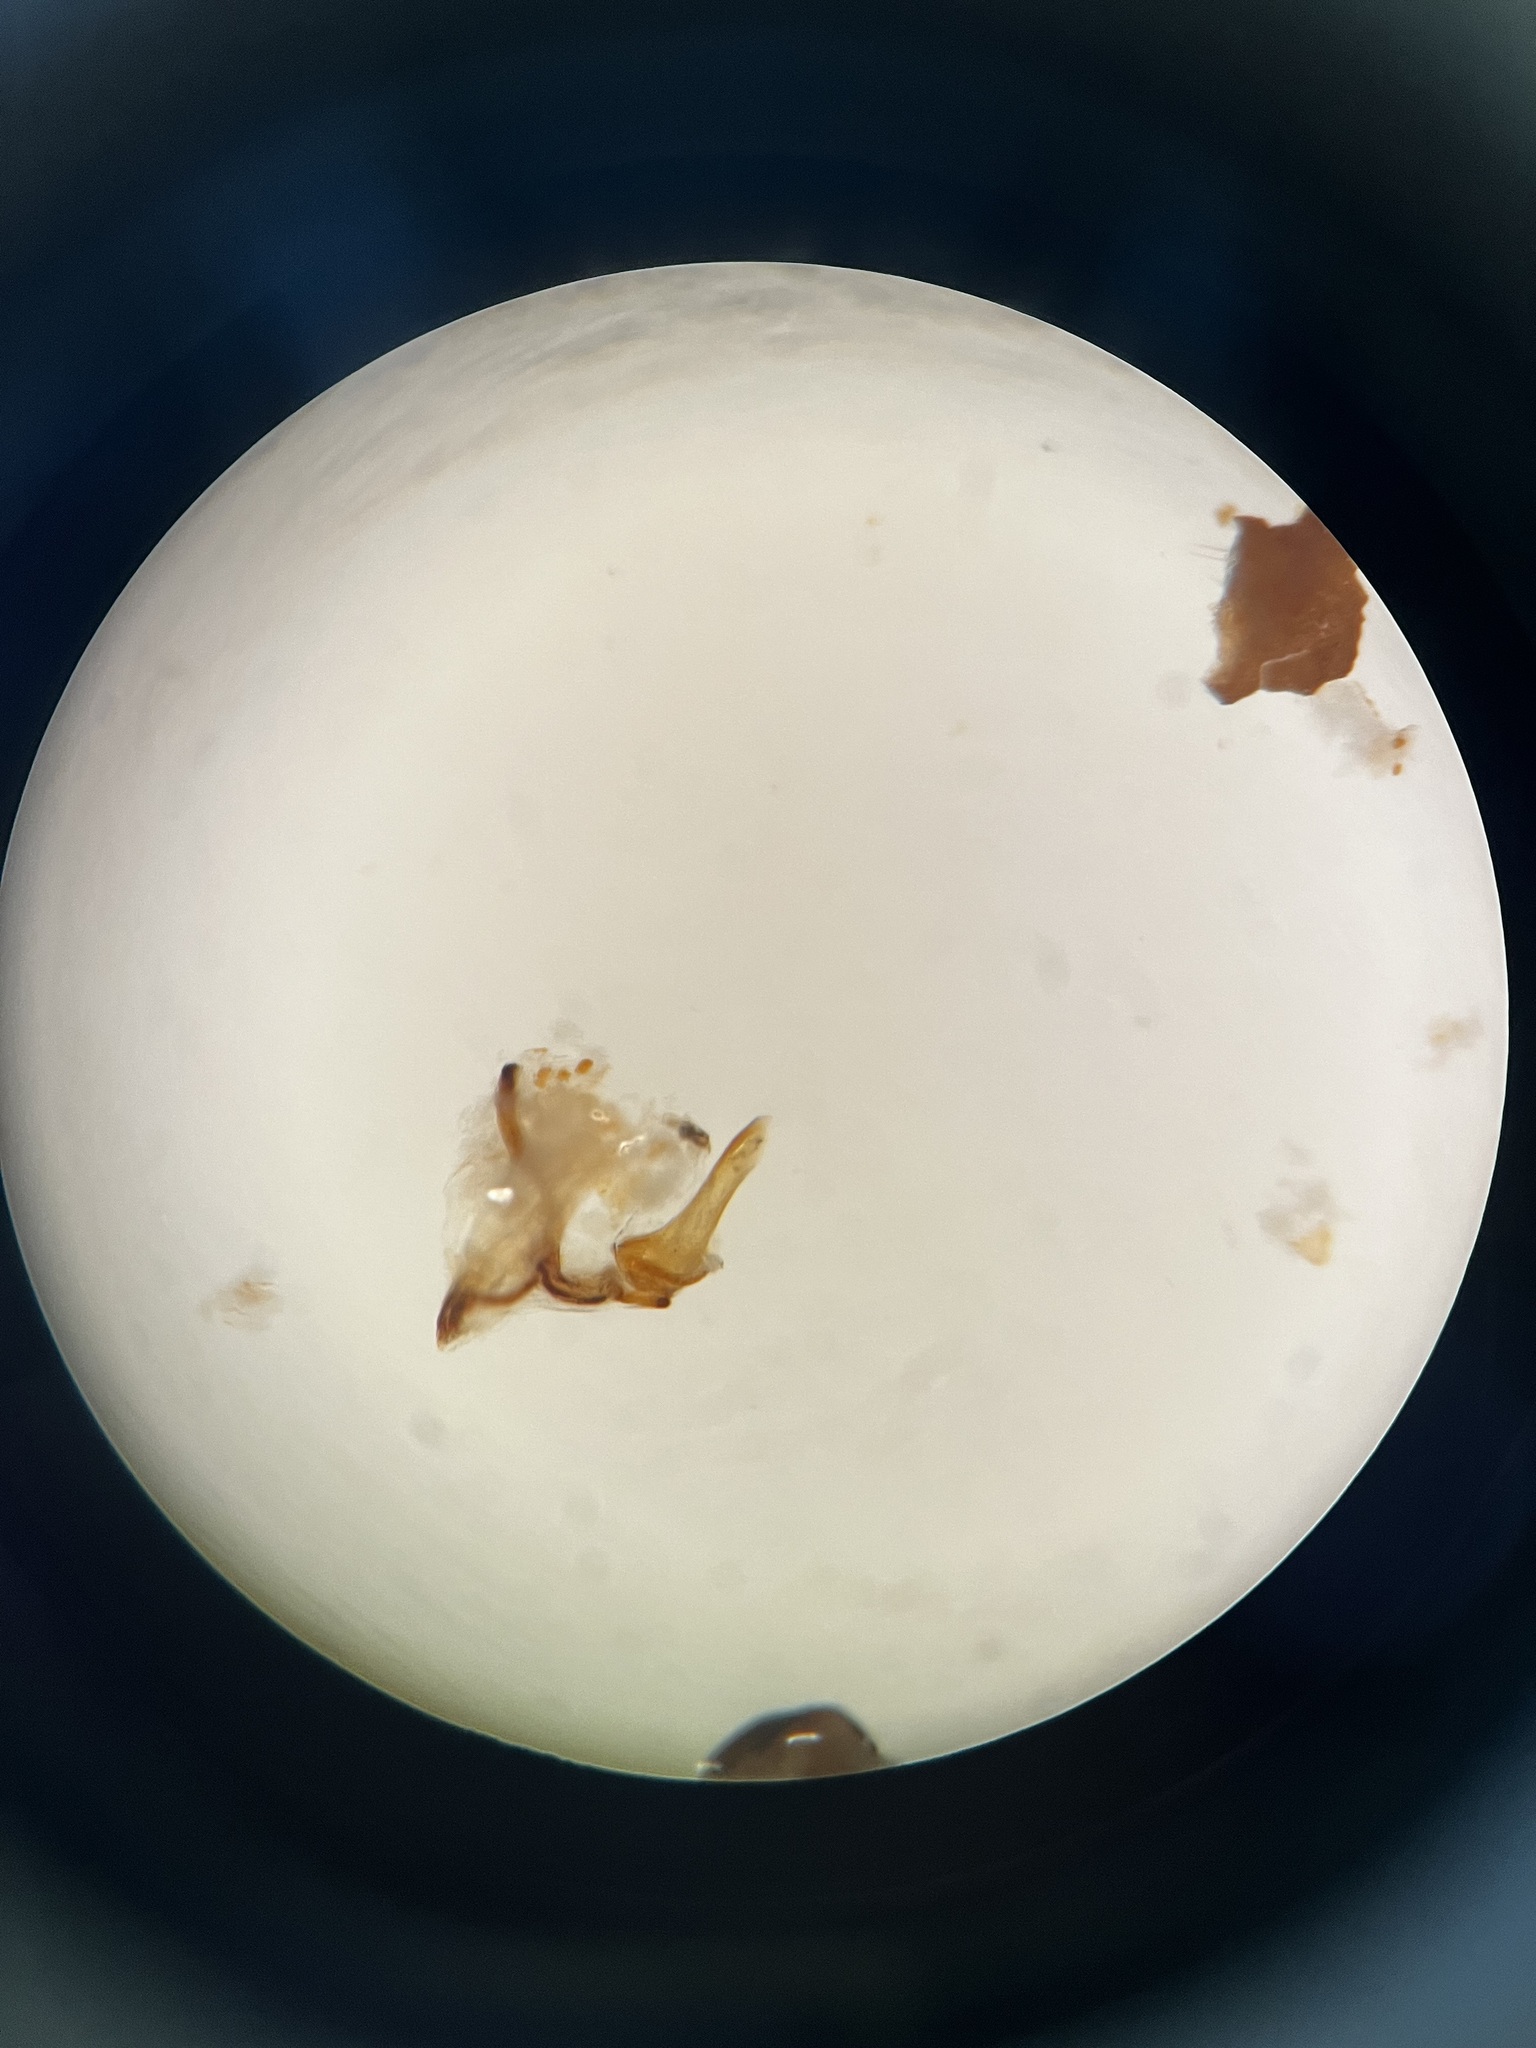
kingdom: Animalia
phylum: Arthropoda
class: Insecta
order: Hemiptera
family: Delphacidae
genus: Conomelus
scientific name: Conomelus anceps
